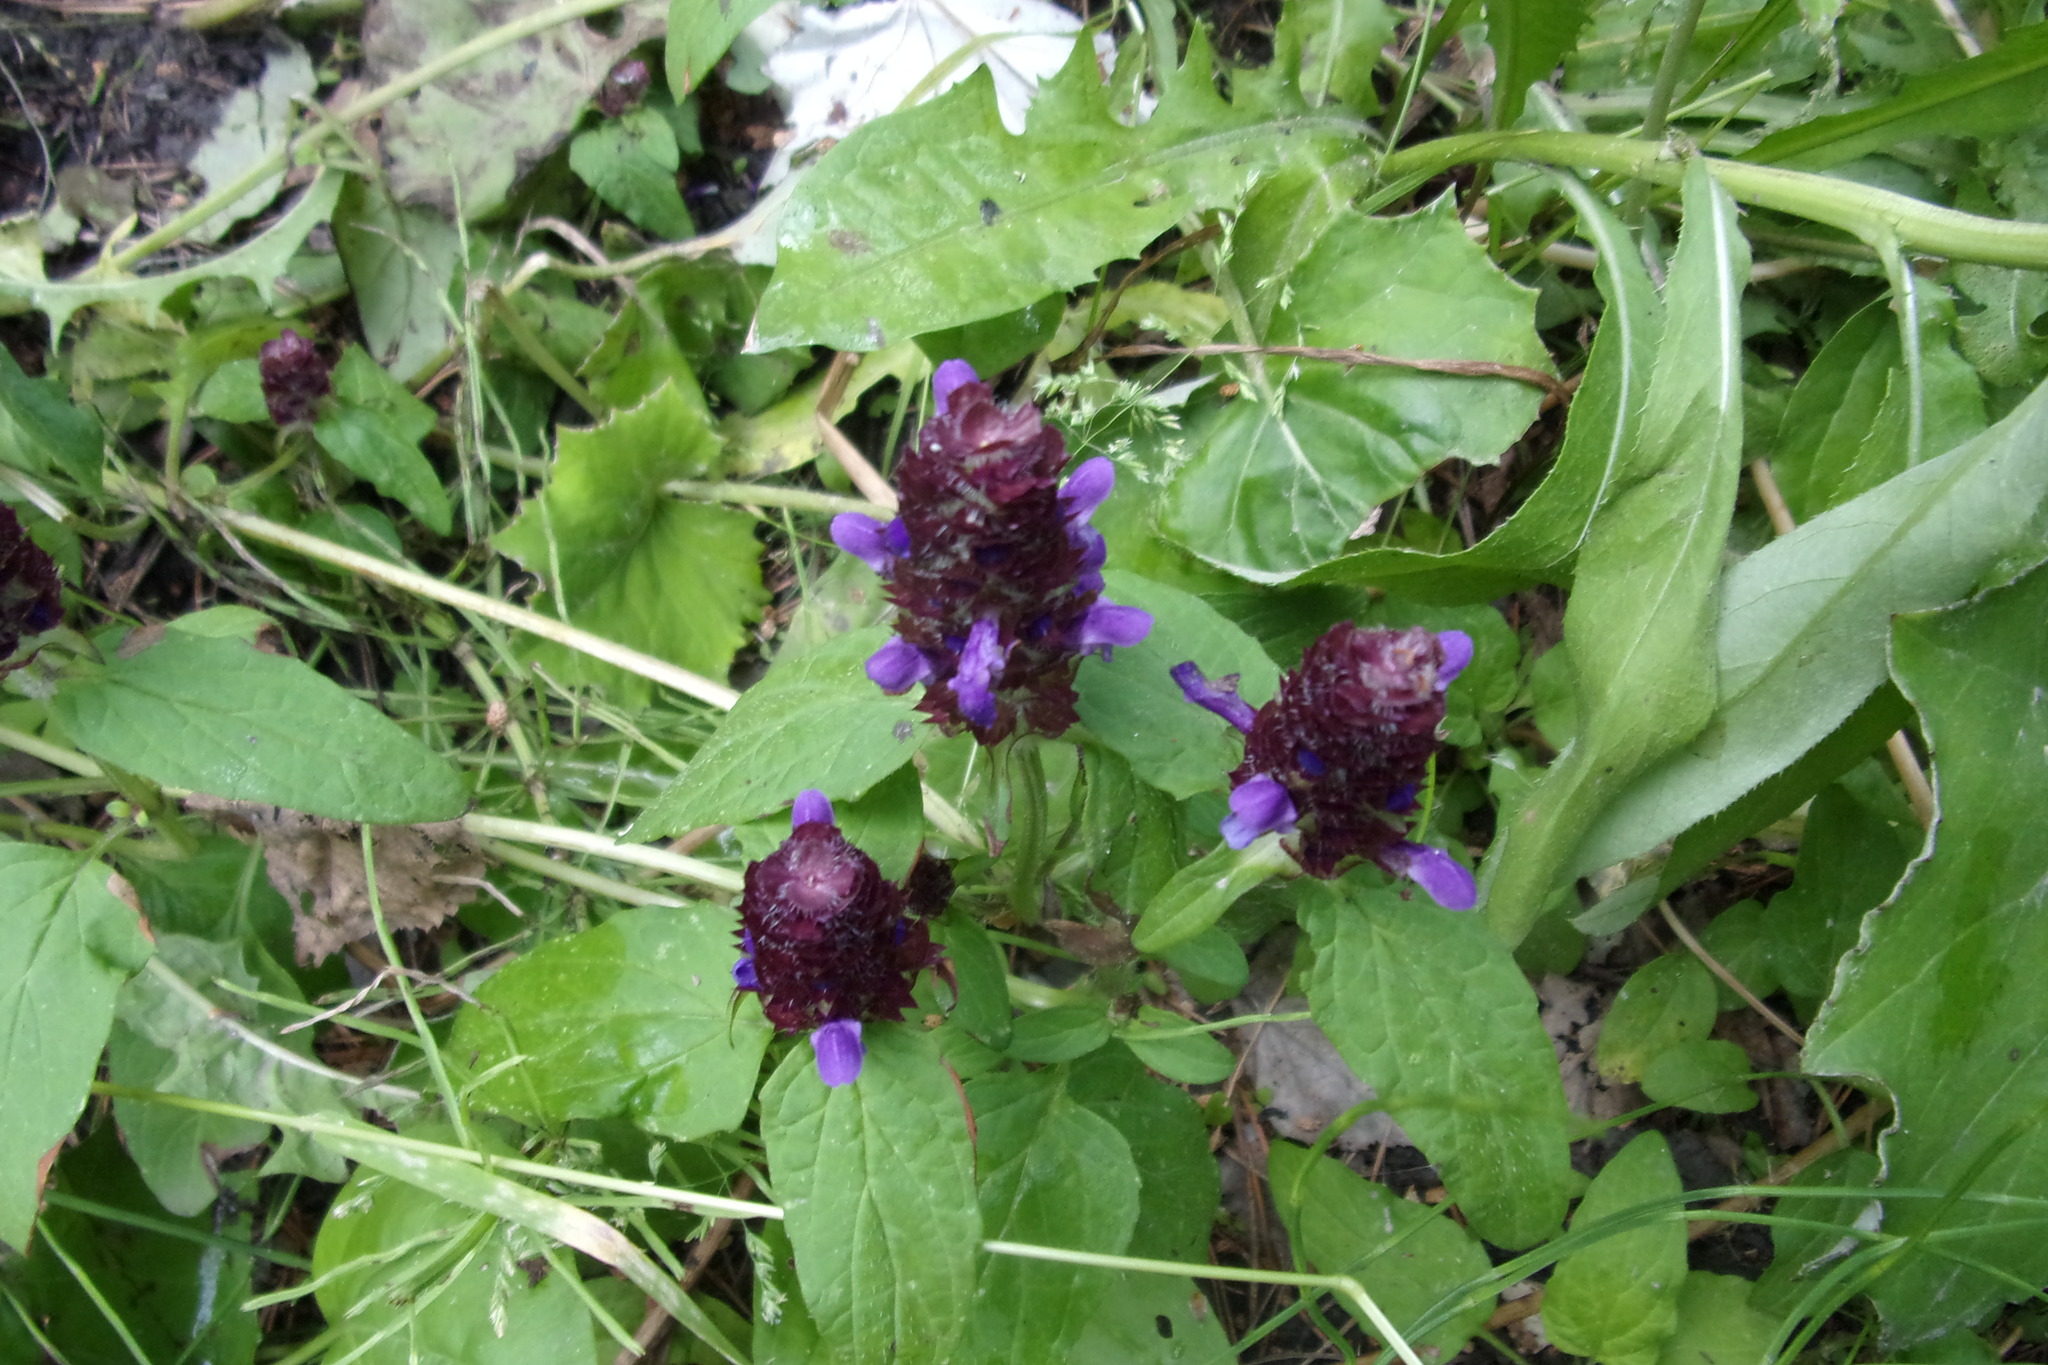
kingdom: Plantae
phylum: Tracheophyta
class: Magnoliopsida
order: Lamiales
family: Lamiaceae
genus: Prunella
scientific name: Prunella vulgaris
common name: Heal-all
